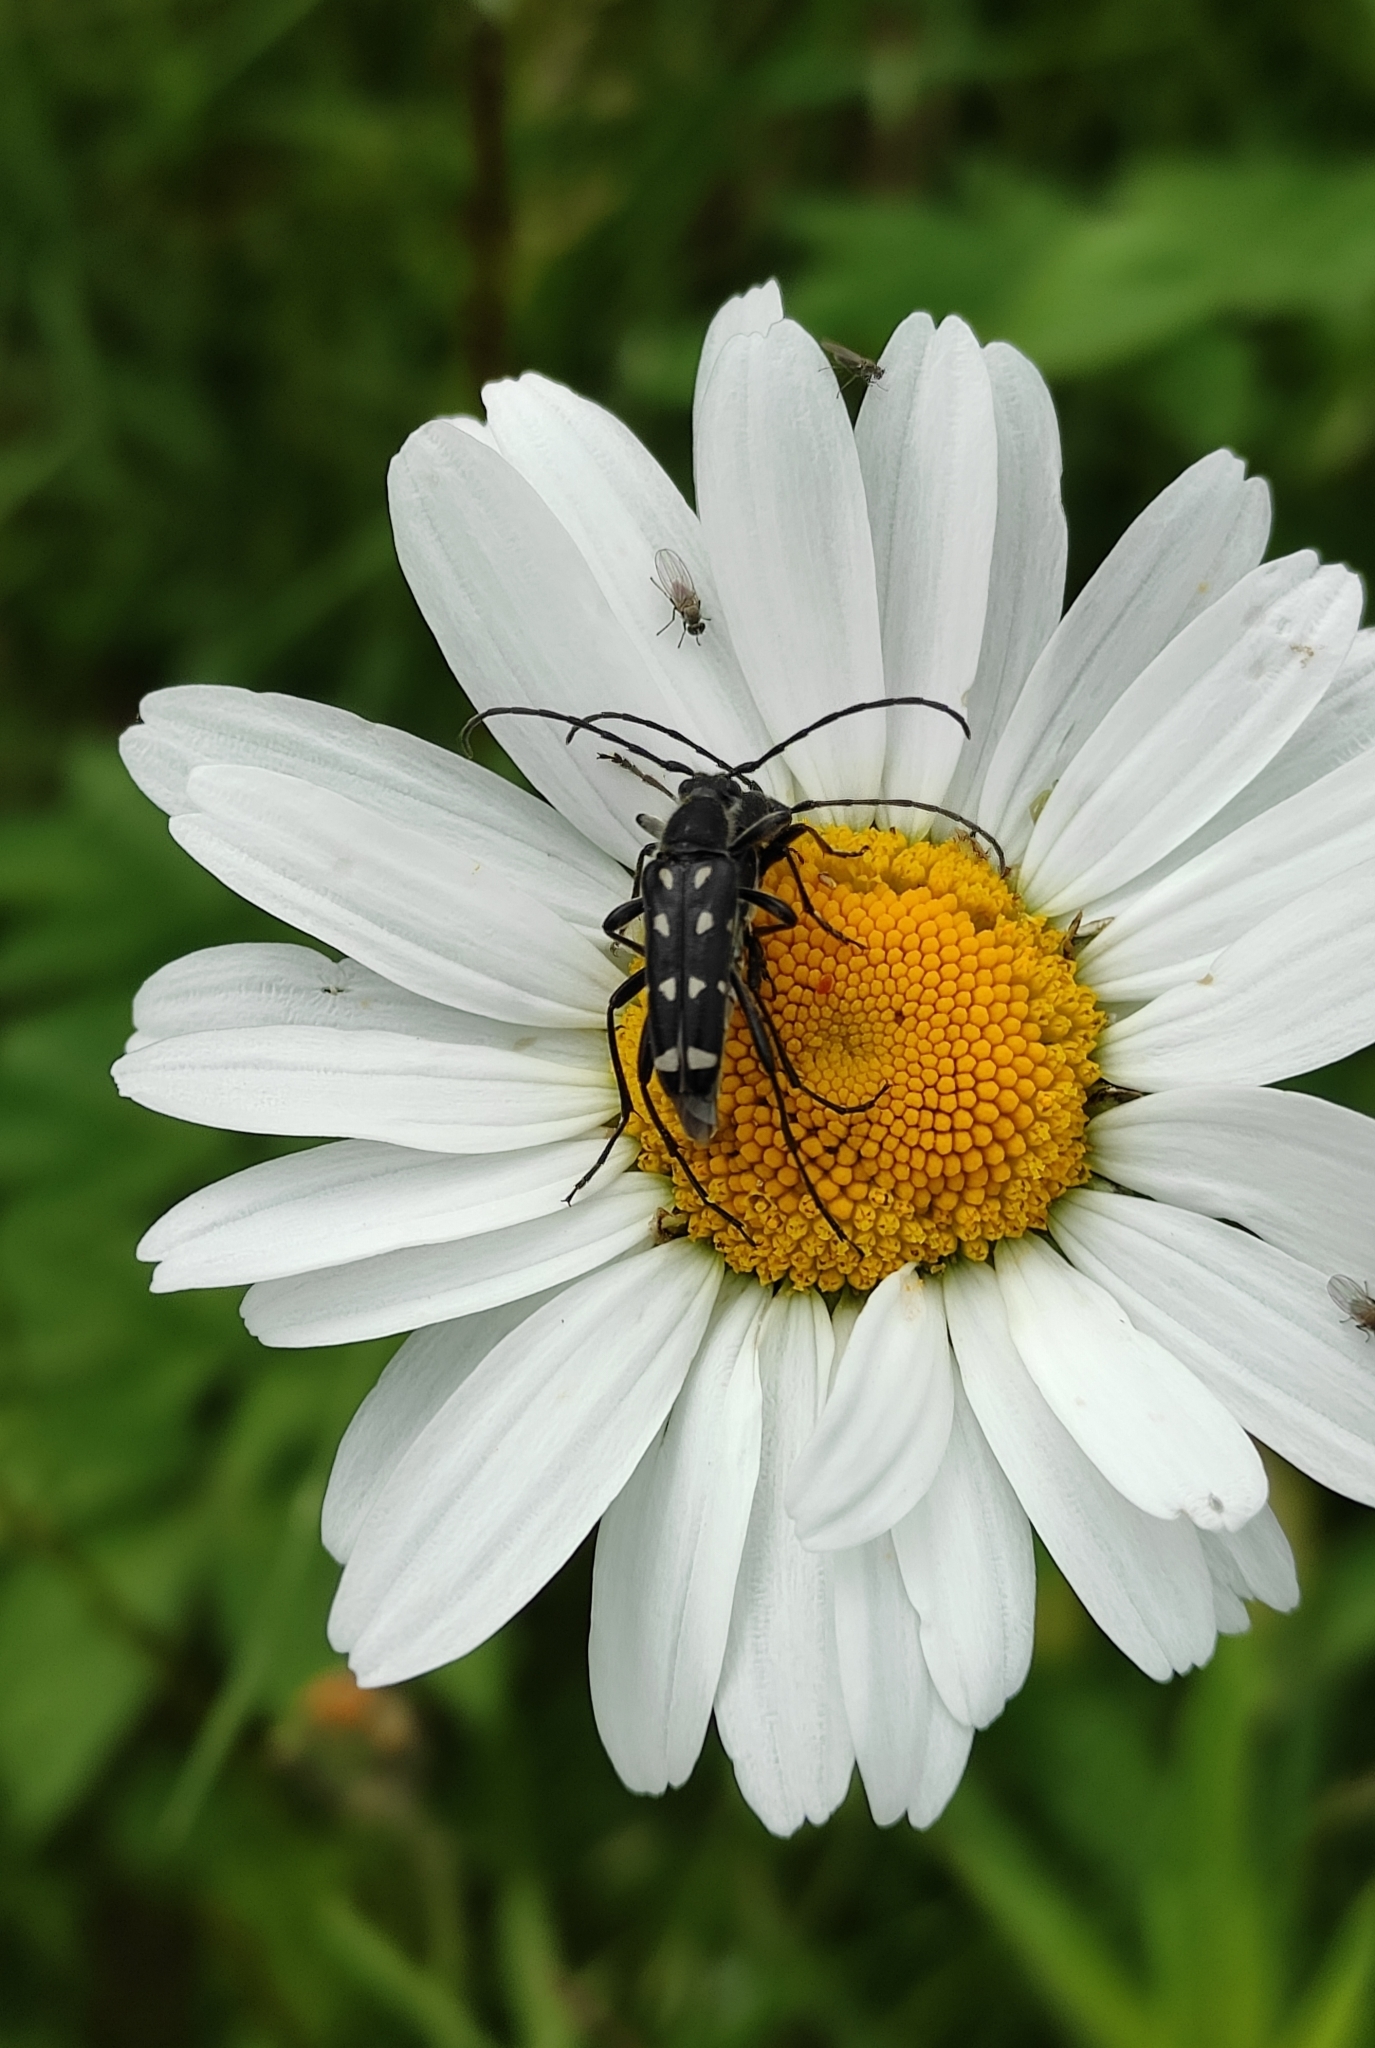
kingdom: Animalia
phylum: Arthropoda
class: Insecta
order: Coleoptera
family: Cerambycidae
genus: Leptura
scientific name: Leptura duodecimguttata
